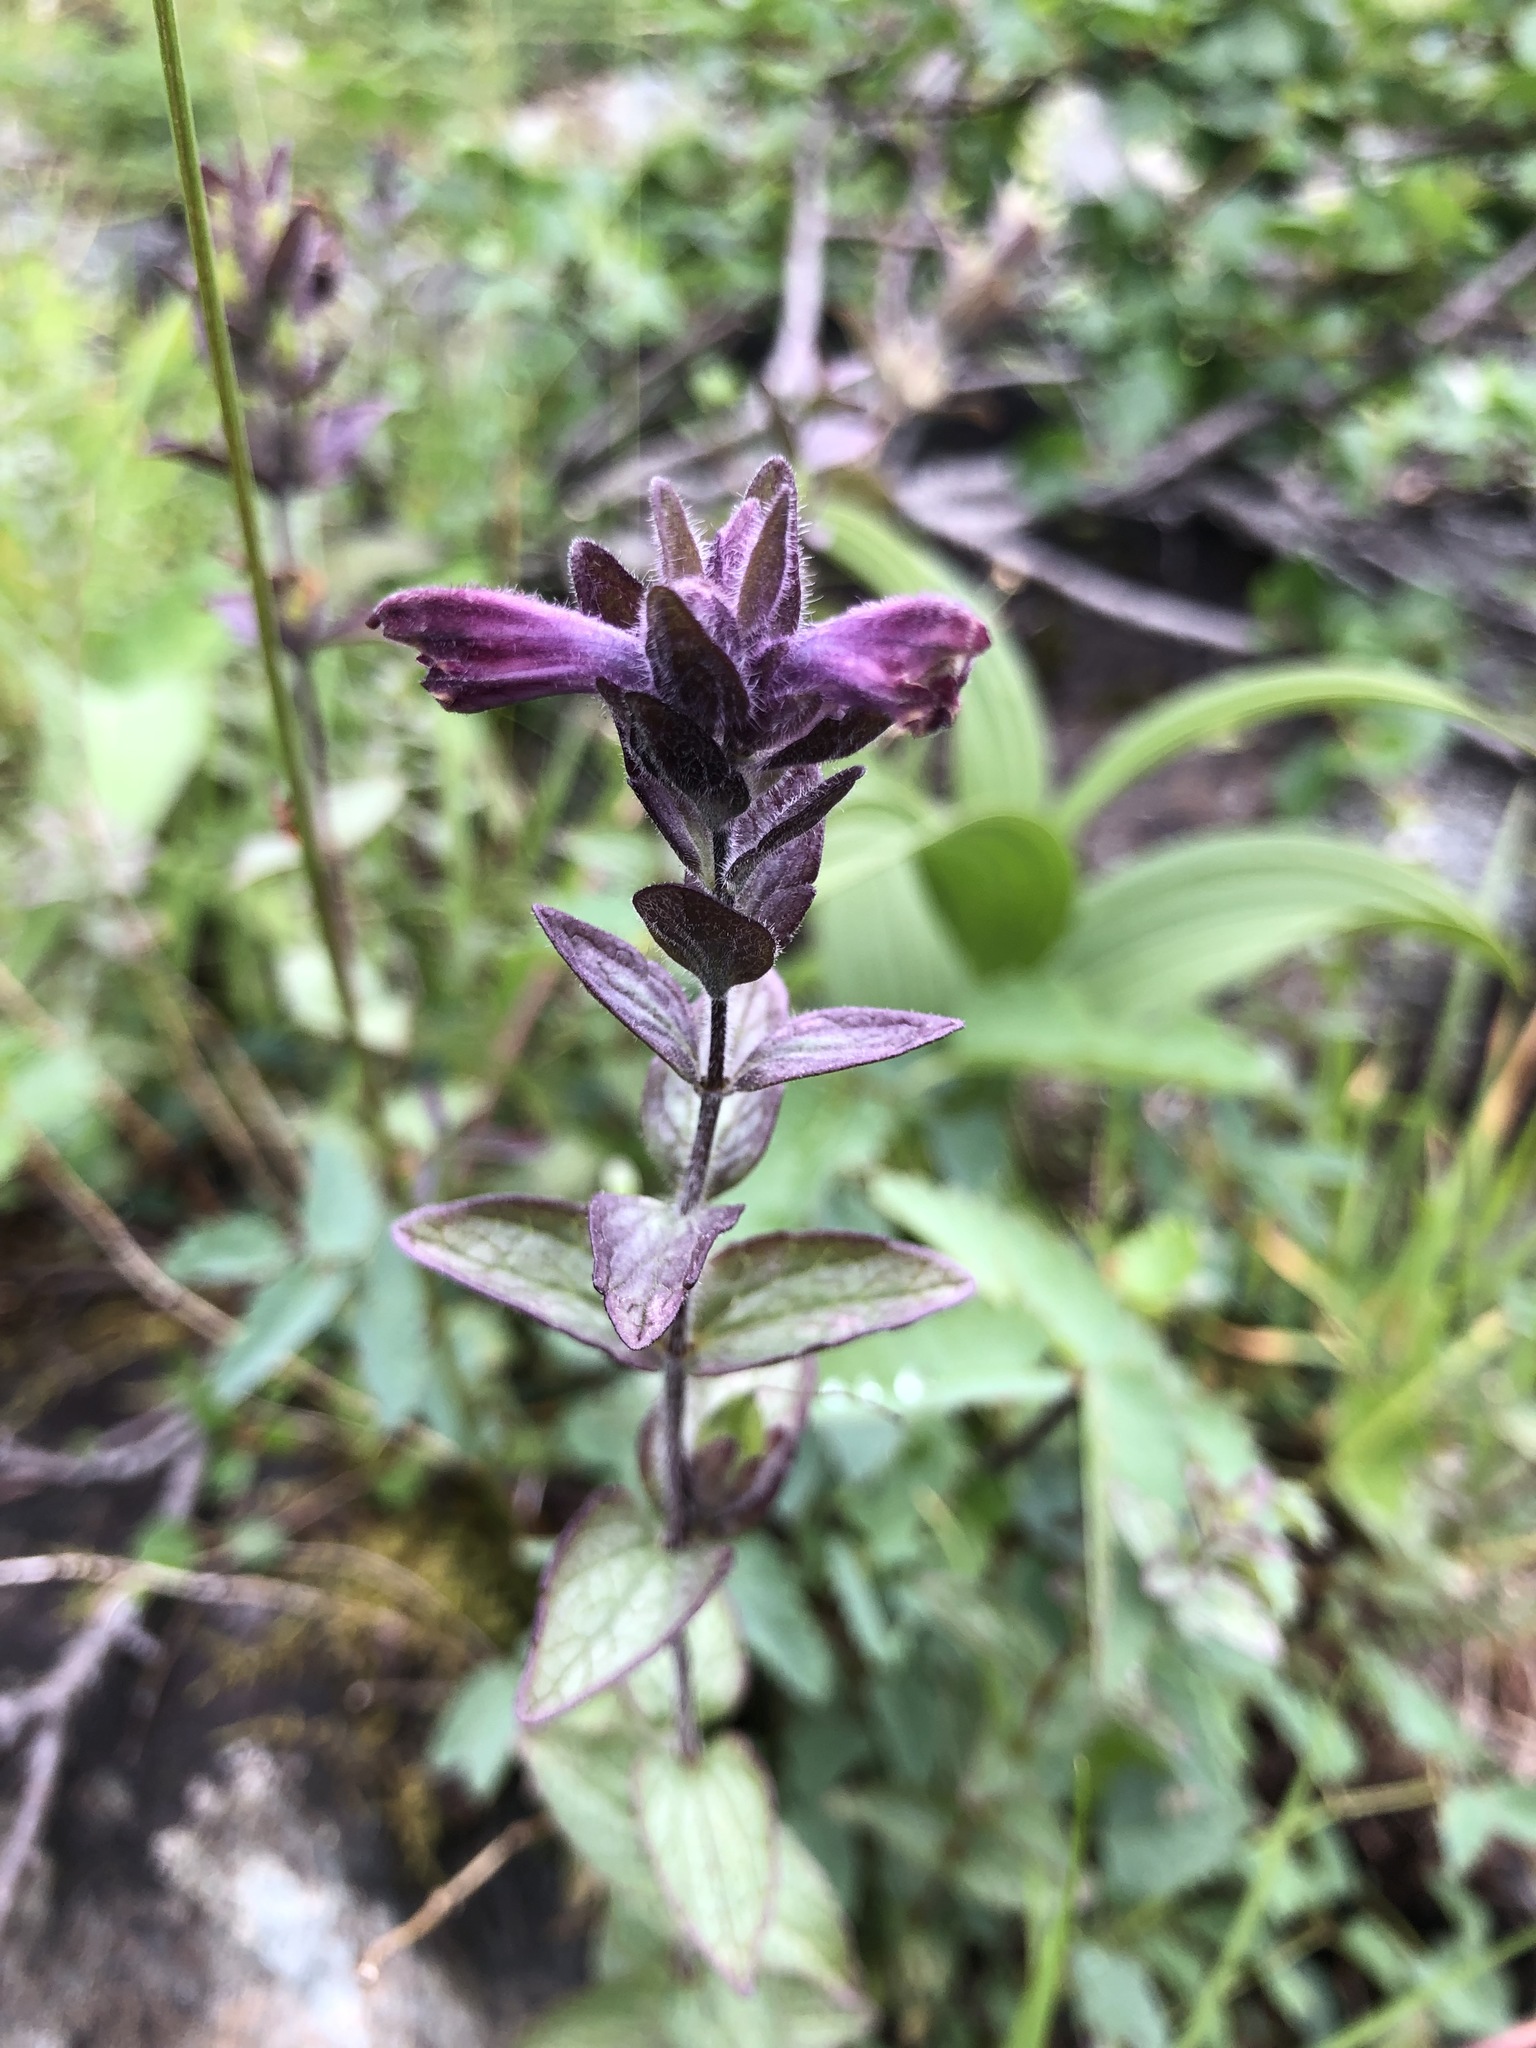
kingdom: Plantae
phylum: Tracheophyta
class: Magnoliopsida
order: Lamiales
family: Orobanchaceae
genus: Bartsia
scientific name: Bartsia alpina
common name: Alpine bartsia
